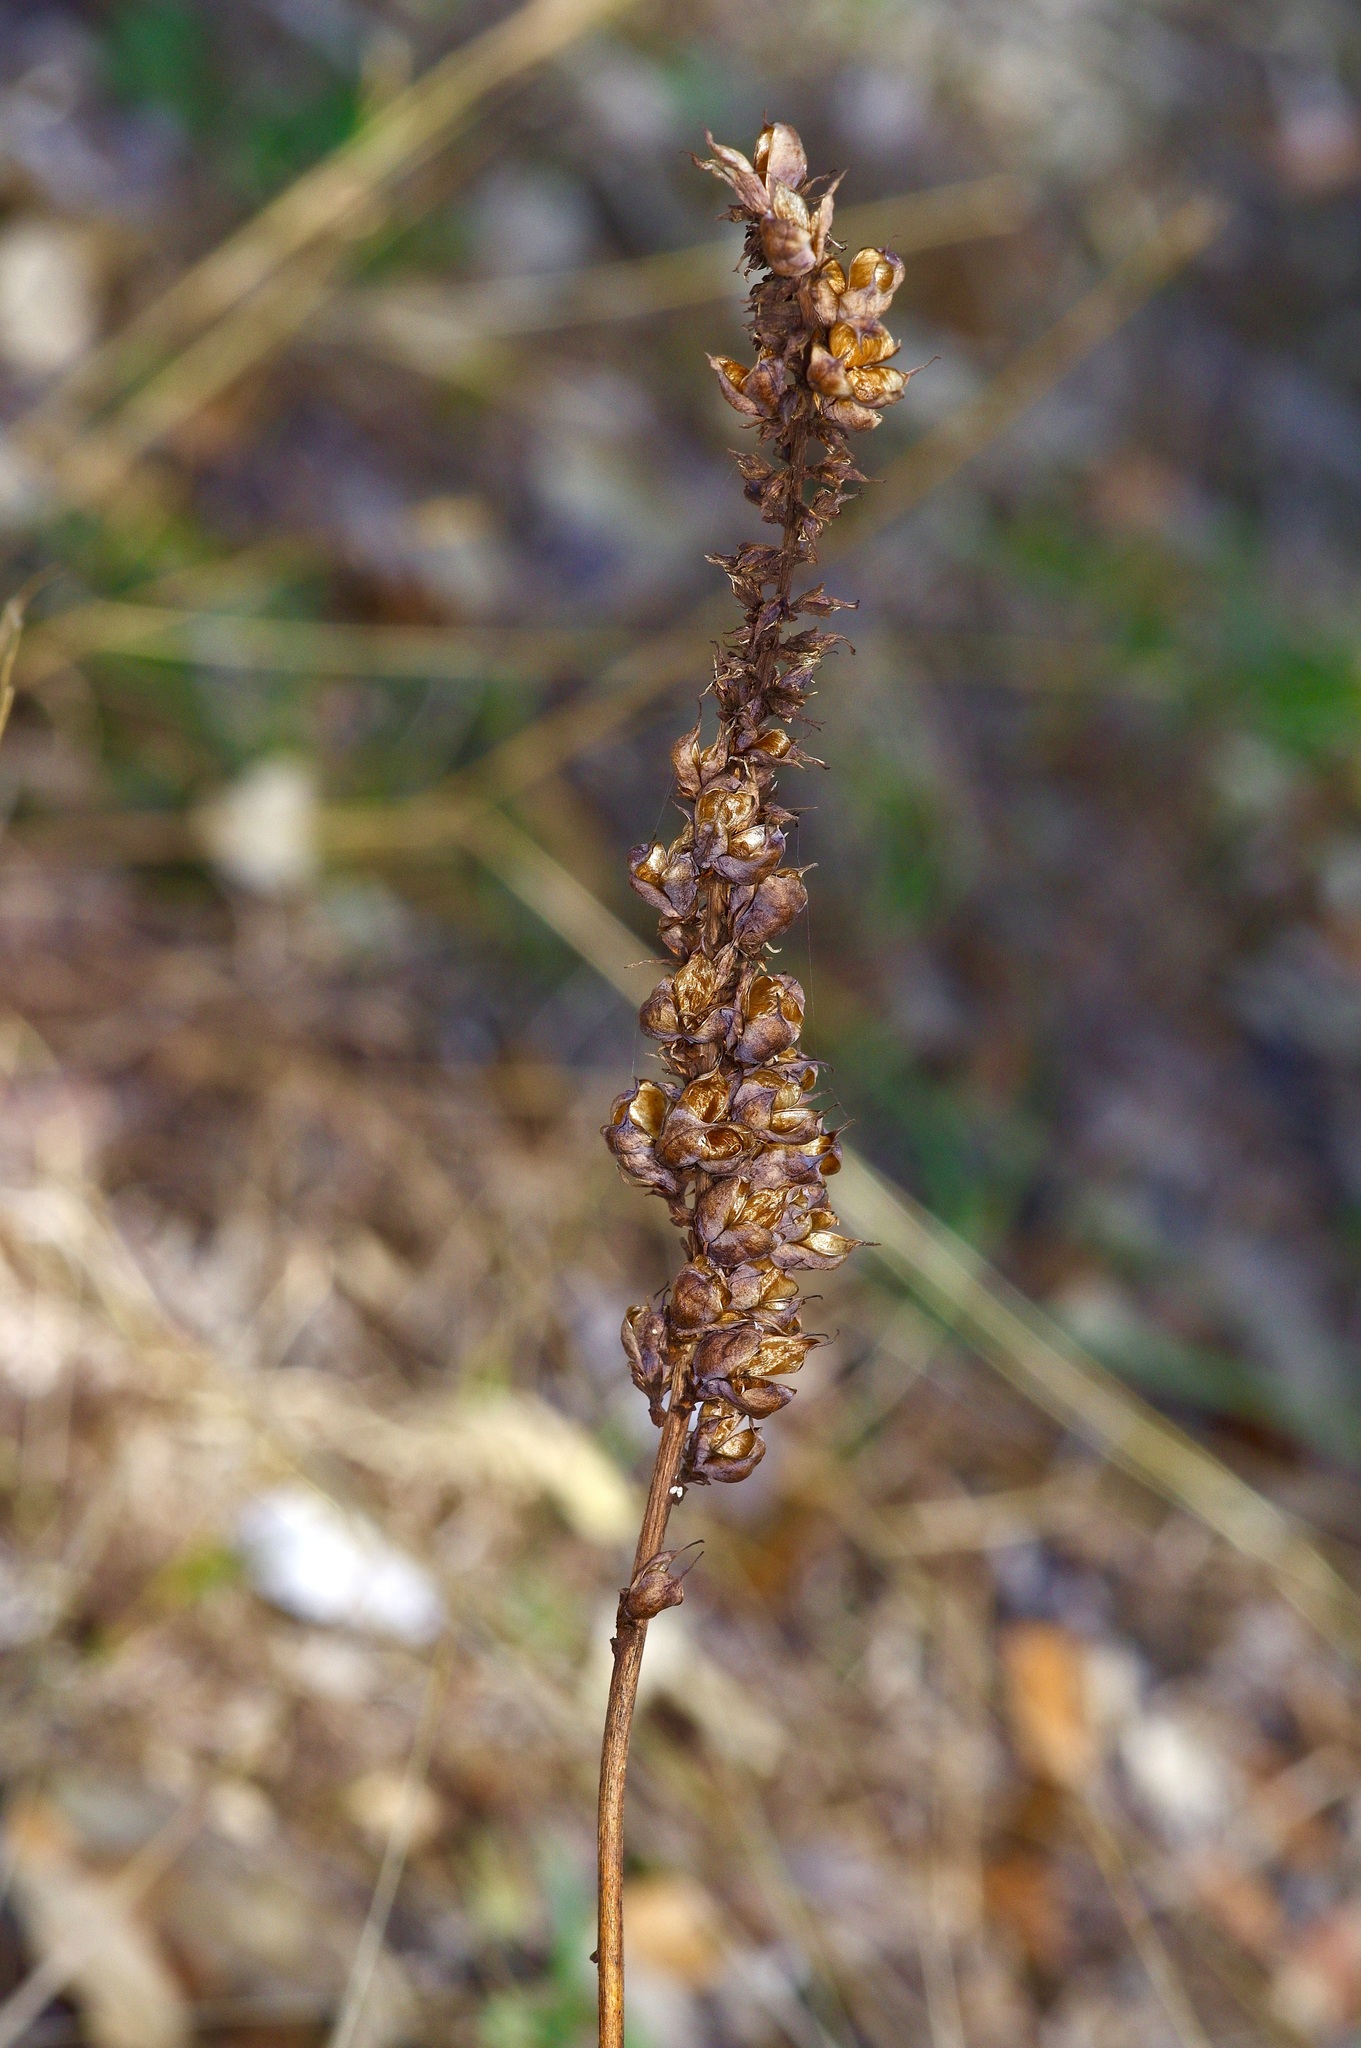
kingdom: Plantae
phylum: Tracheophyta
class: Liliopsida
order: Liliales
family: Melanthiaceae
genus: Schoenocaulon
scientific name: Schoenocaulon ghiesbreghtii
